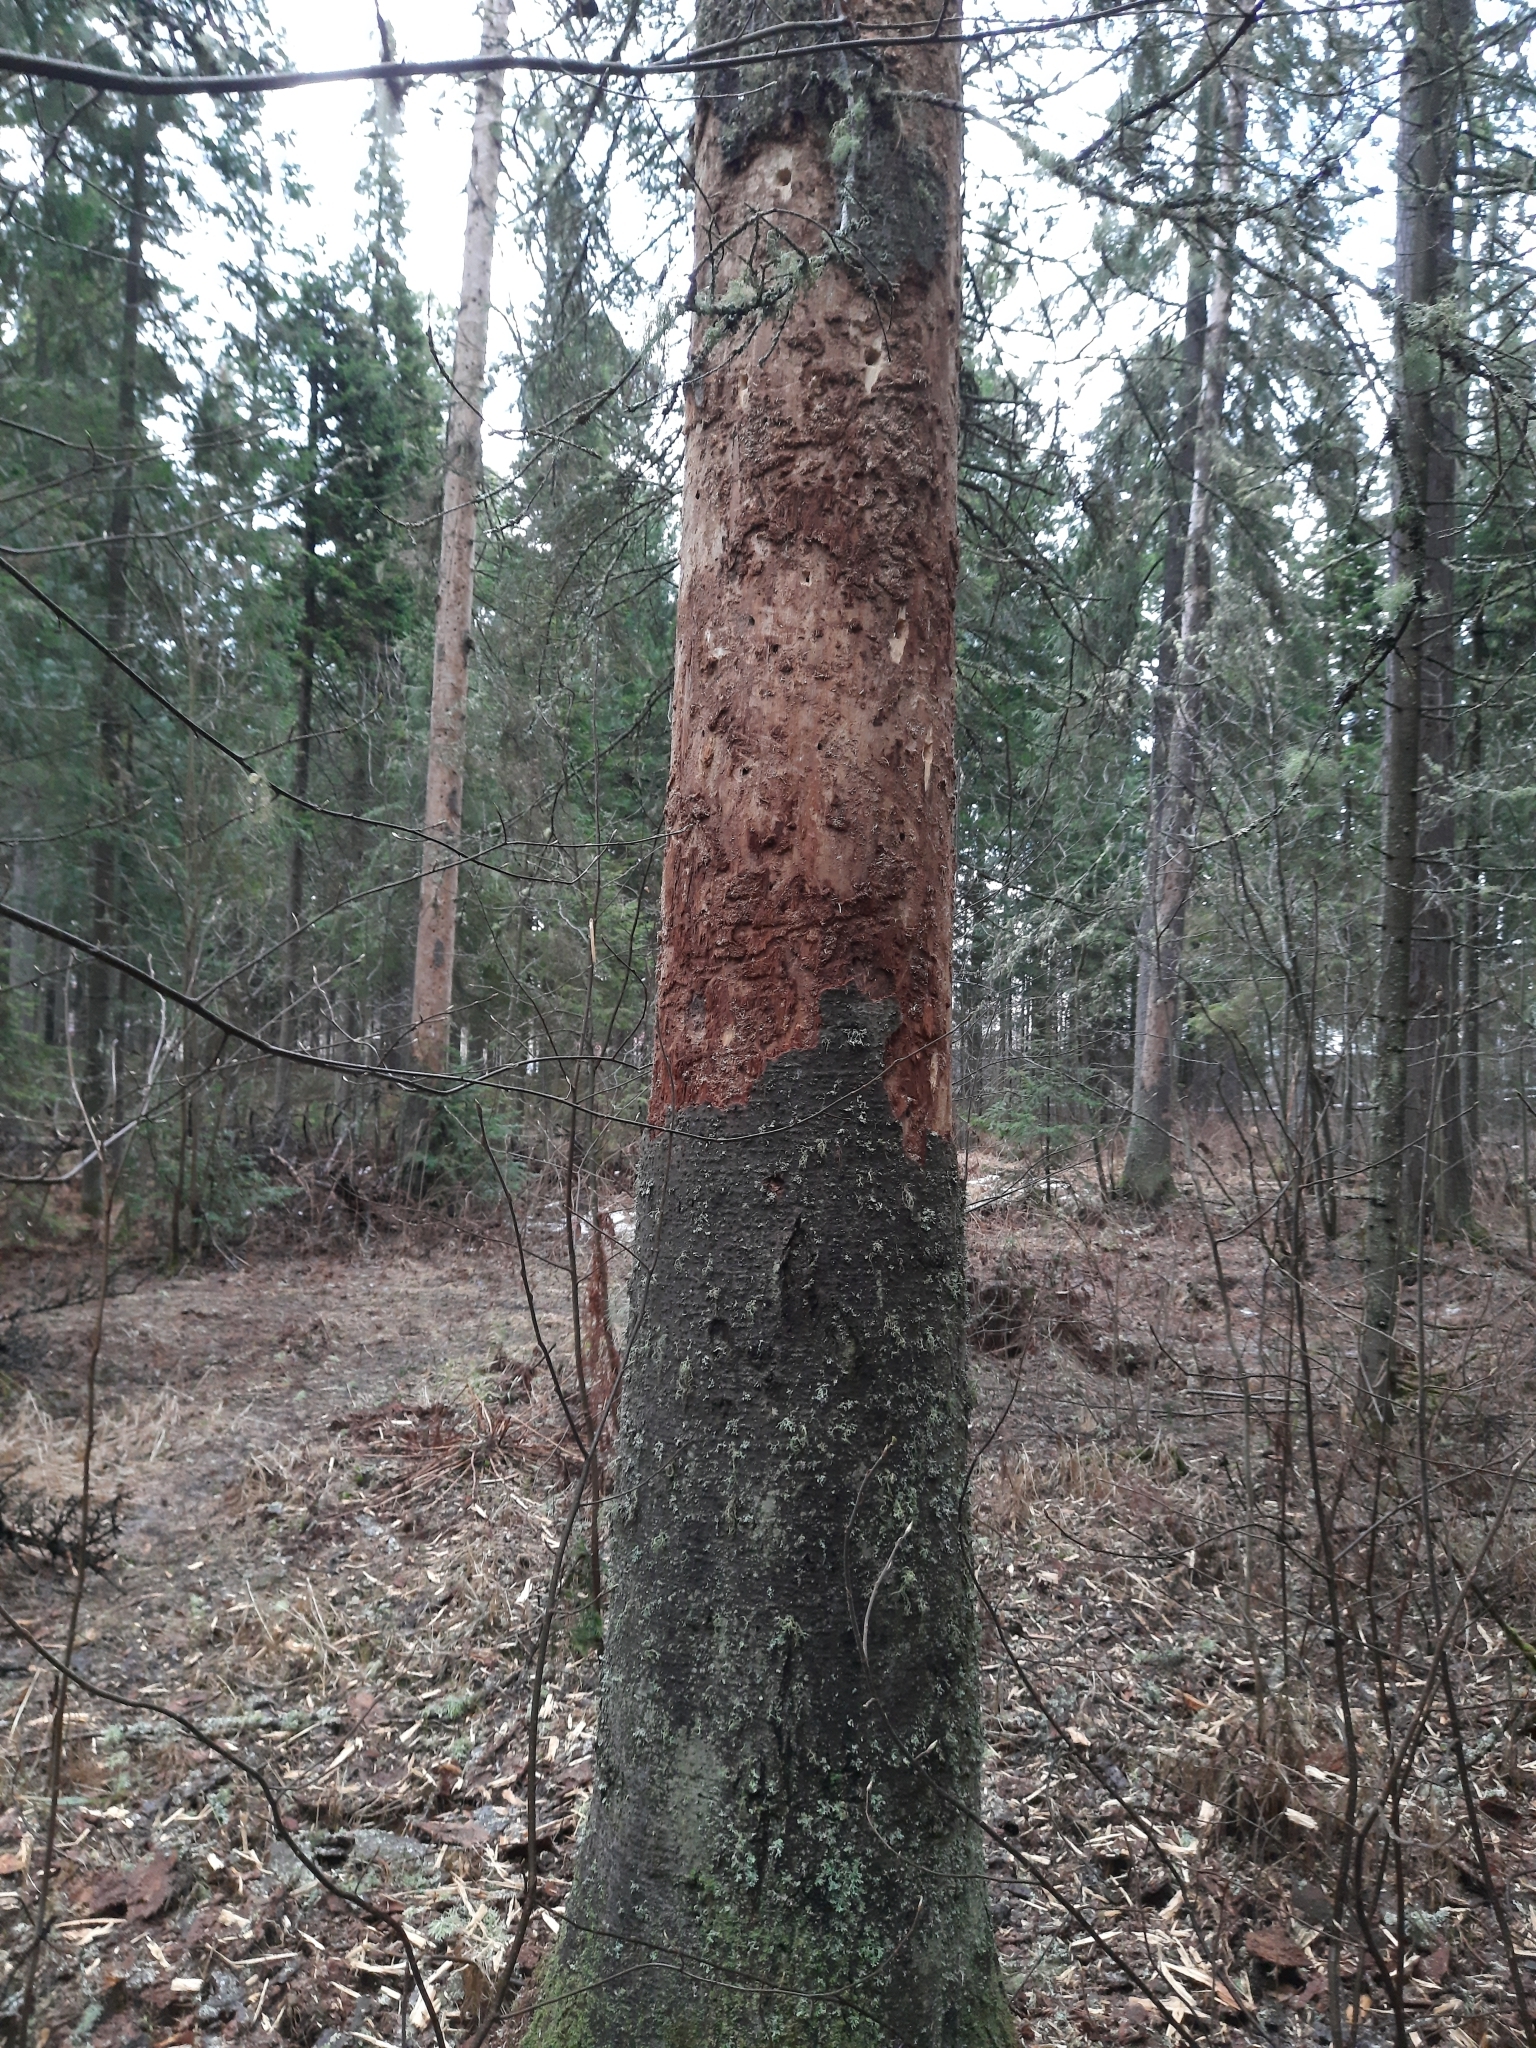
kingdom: Animalia
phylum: Chordata
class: Aves
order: Piciformes
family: Picidae
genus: Dryocopus
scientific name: Dryocopus martius
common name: Black woodpecker
